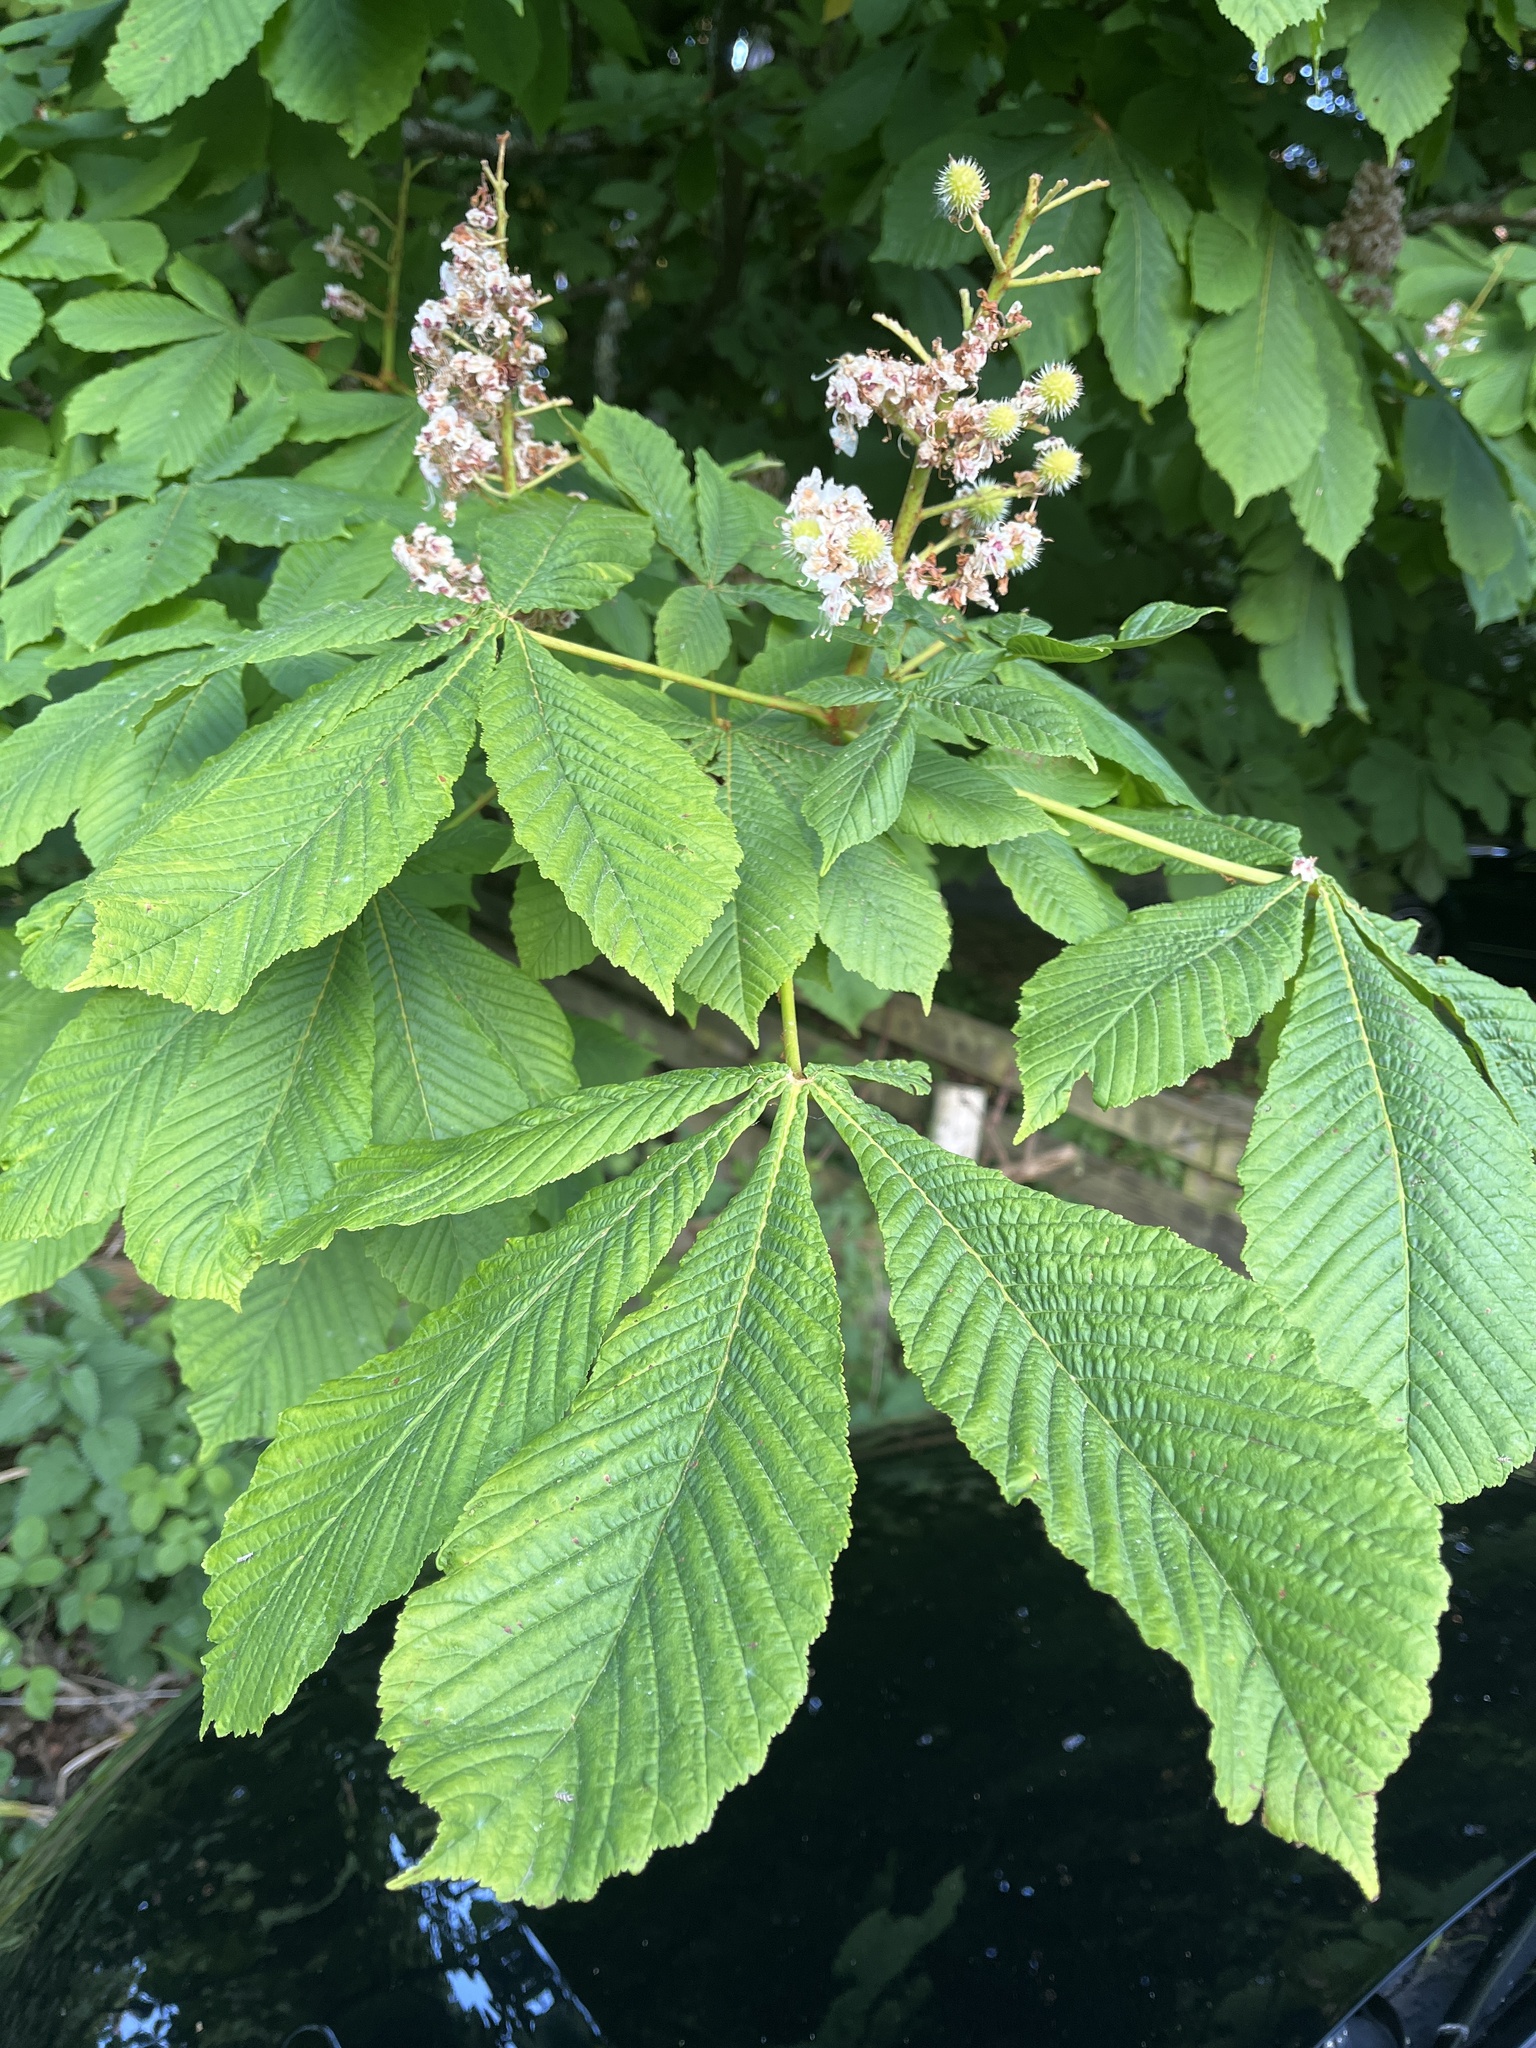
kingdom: Plantae
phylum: Tracheophyta
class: Magnoliopsida
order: Sapindales
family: Sapindaceae
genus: Aesculus
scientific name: Aesculus hippocastanum
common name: Horse-chestnut
